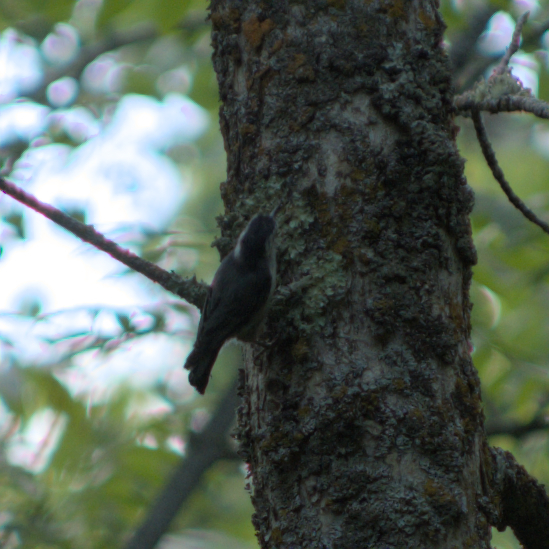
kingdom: Animalia
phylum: Chordata
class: Aves
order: Passeriformes
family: Sittidae
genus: Sitta
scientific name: Sitta carolinensis
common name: White-breasted nuthatch
